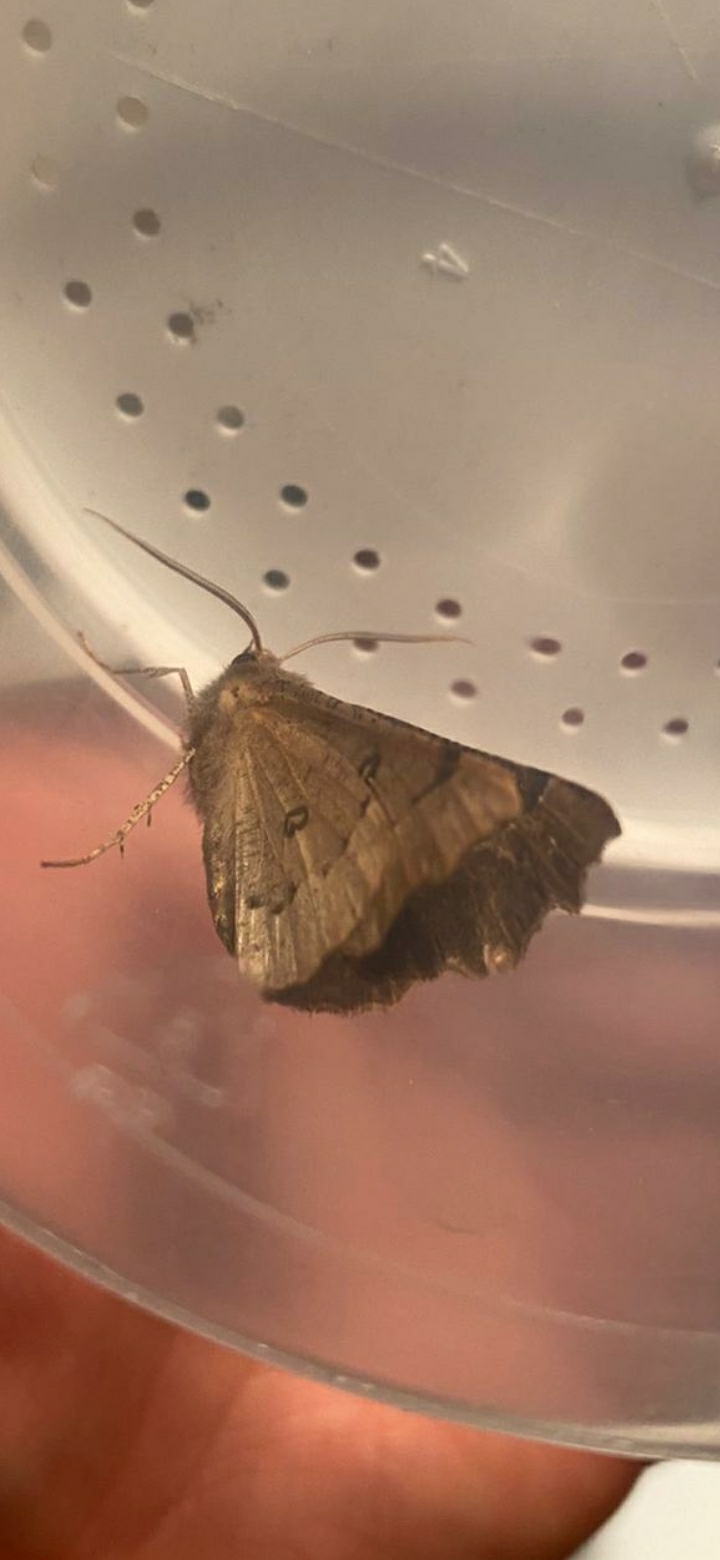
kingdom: Animalia
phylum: Arthropoda
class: Insecta
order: Lepidoptera
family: Geometridae
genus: Odontopera
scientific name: Odontopera bidentata
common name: Scalloped hazel
